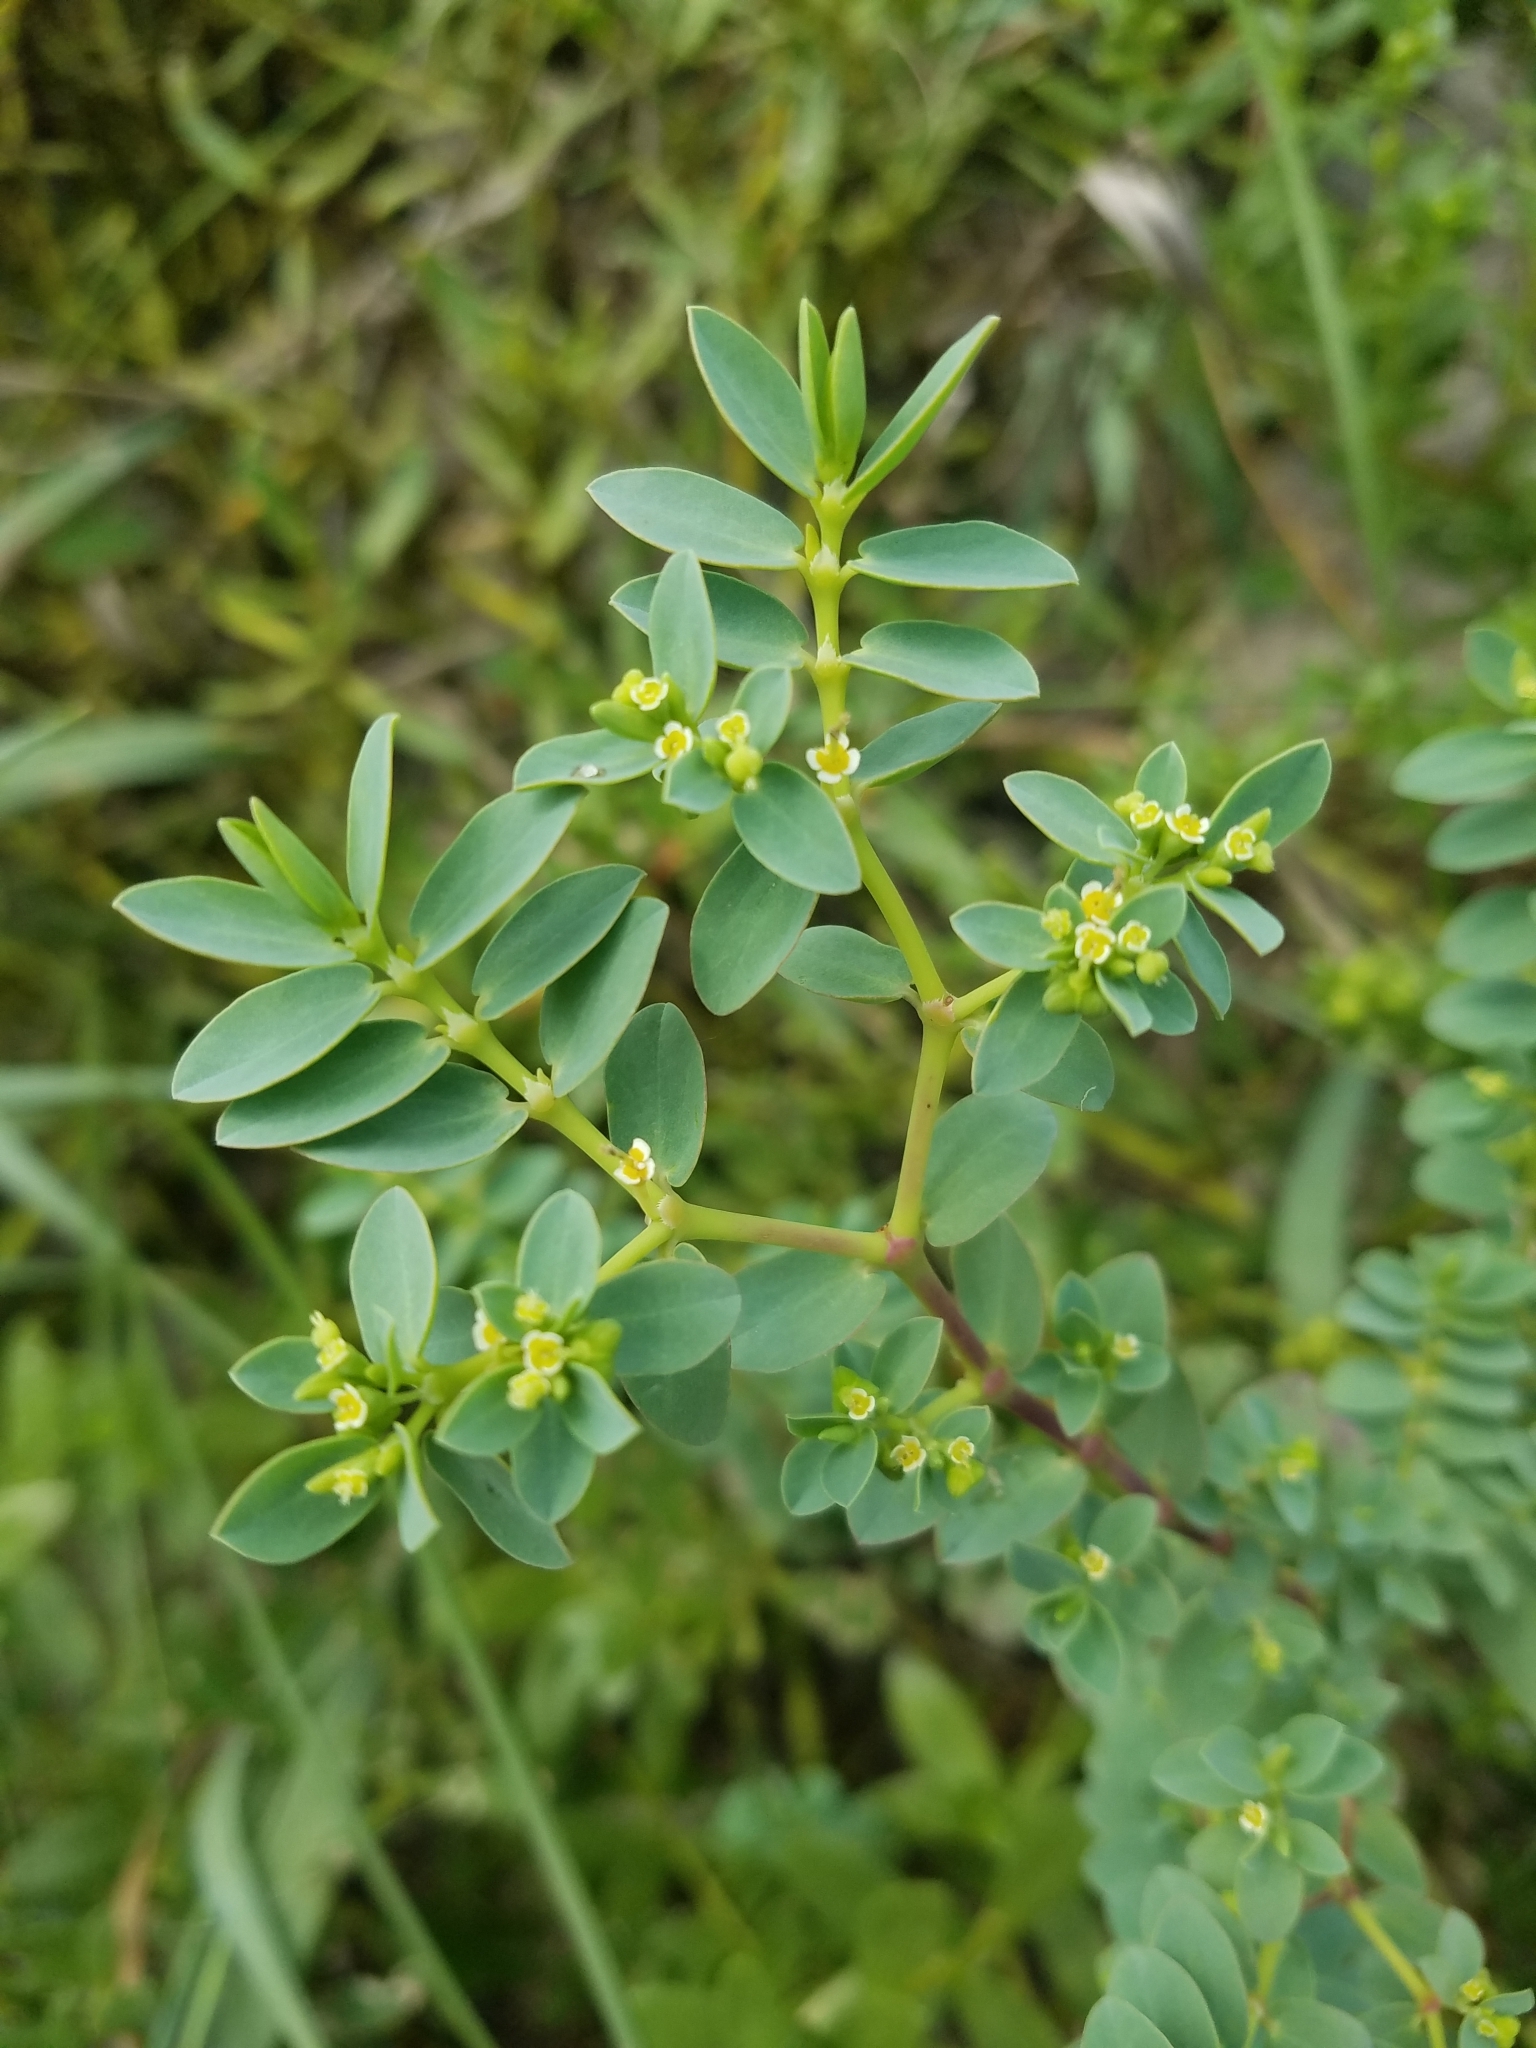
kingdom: Plantae
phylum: Tracheophyta
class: Magnoliopsida
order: Malpighiales
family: Euphorbiaceae
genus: Euphorbia
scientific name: Euphorbia mesembryanthemifolia
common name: Coastal beach sandmat
